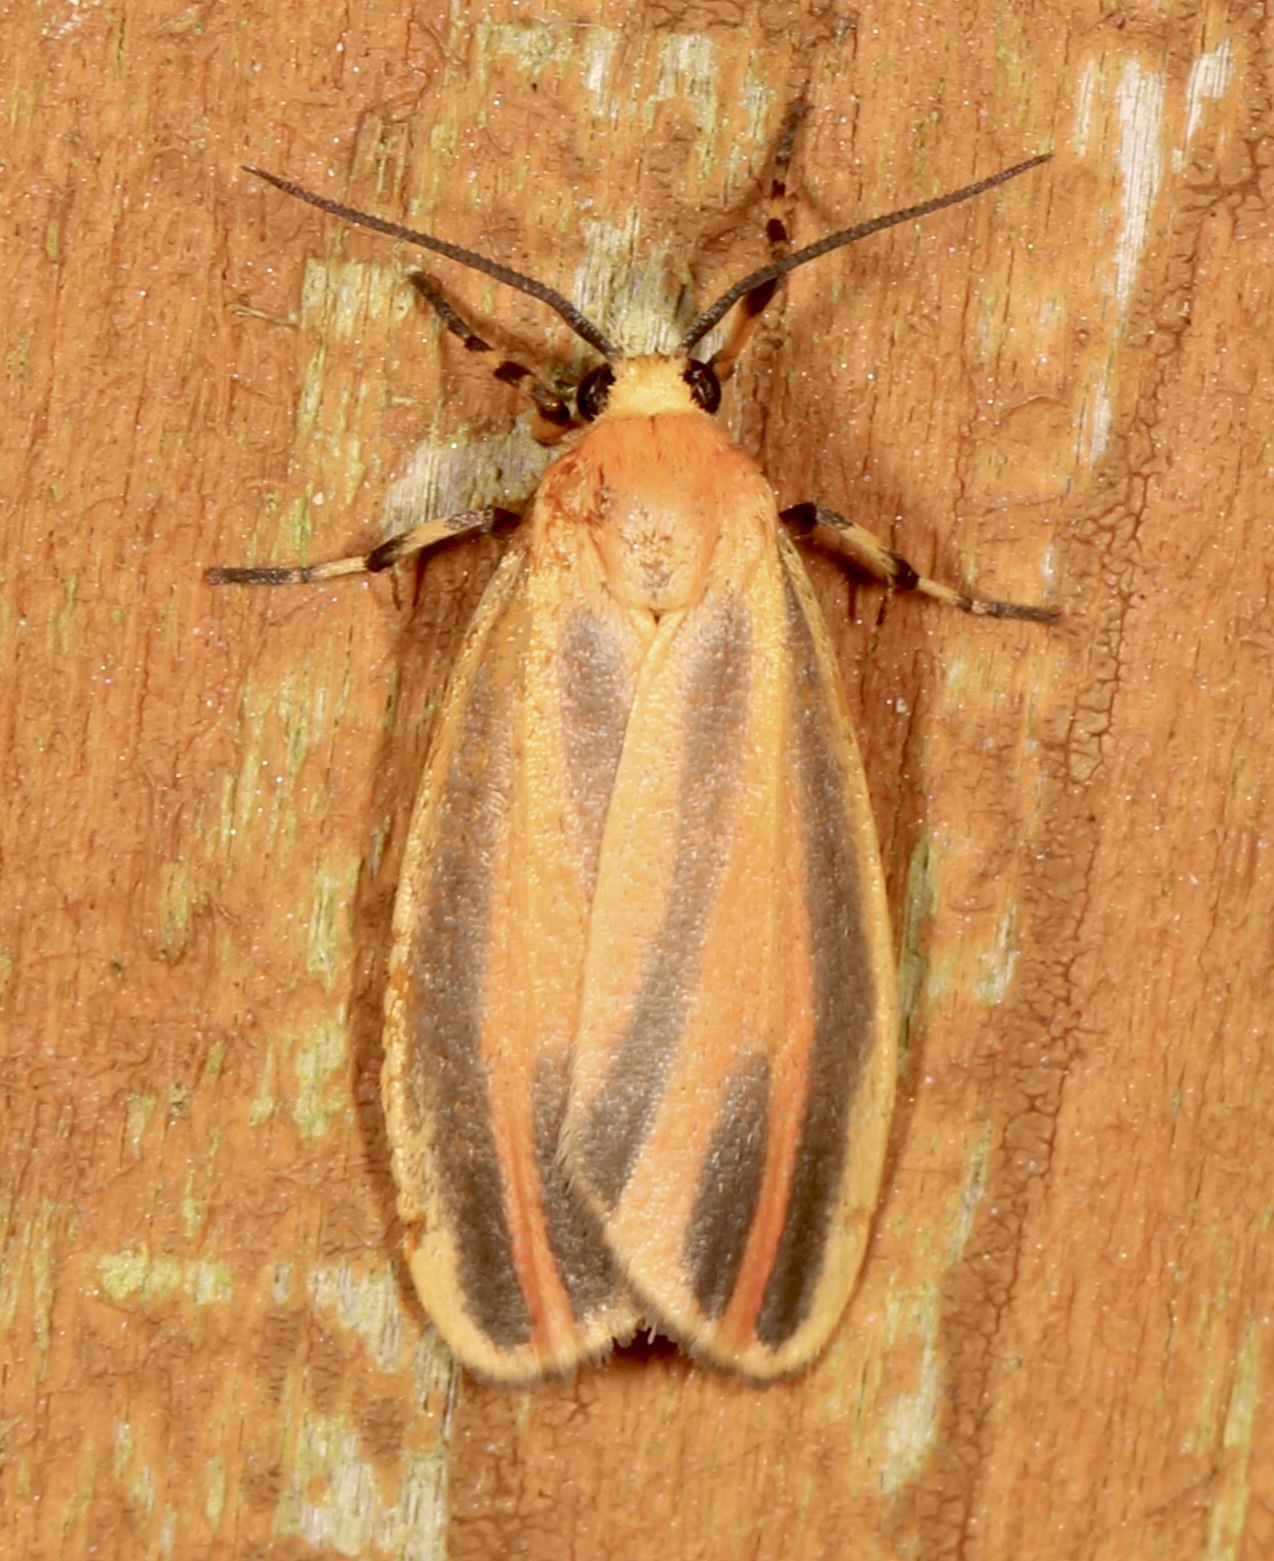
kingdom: Animalia
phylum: Arthropoda
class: Insecta
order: Lepidoptera
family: Erebidae
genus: Hypoprepia
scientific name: Hypoprepia fucosa
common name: Painted lichen moth
